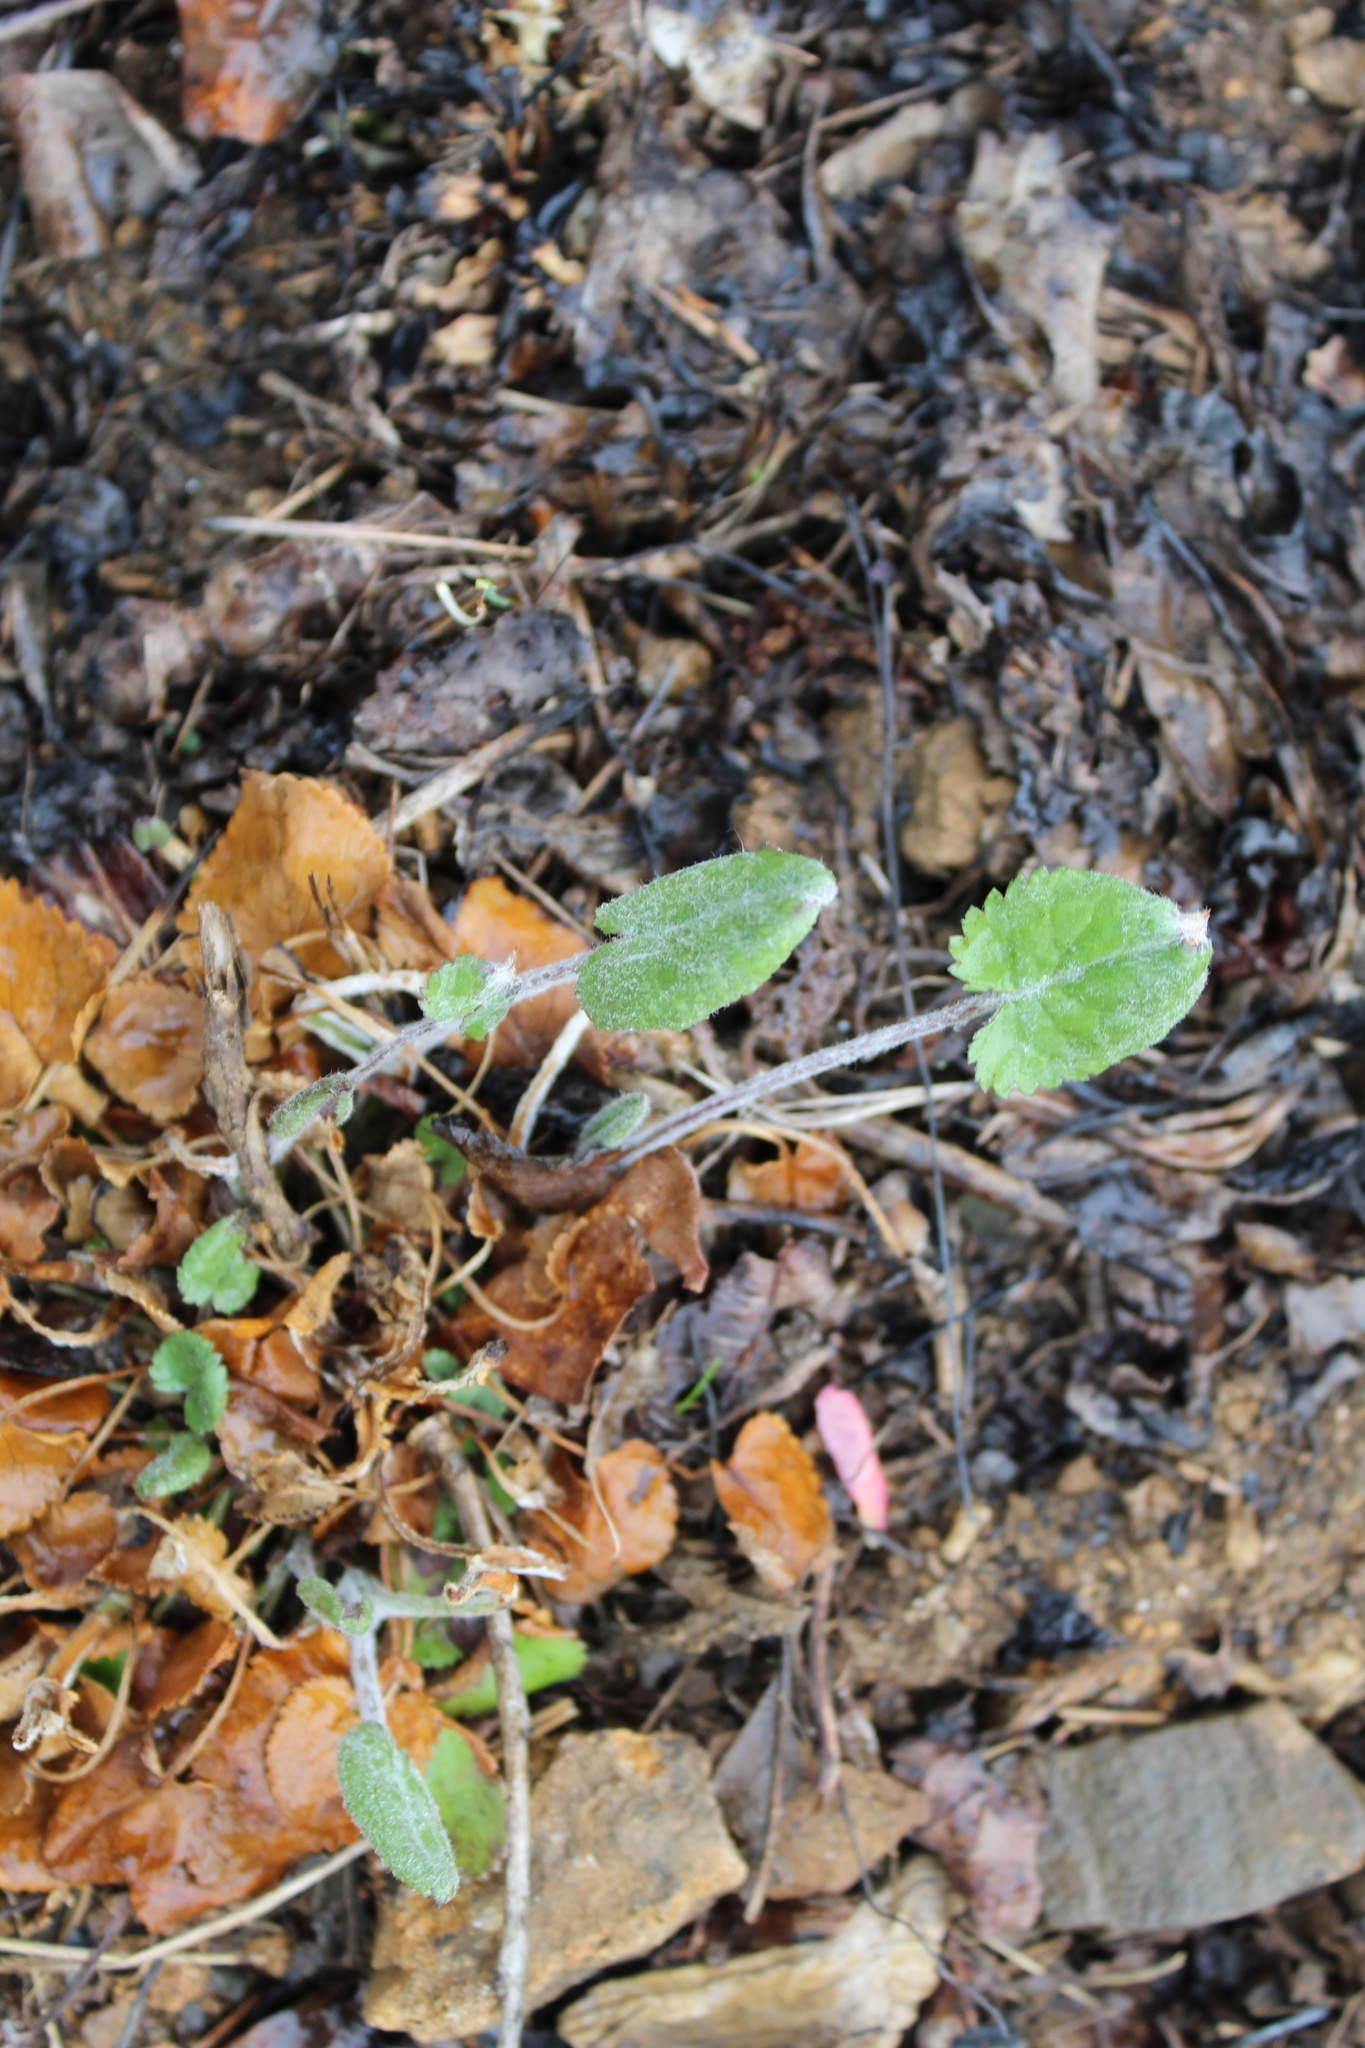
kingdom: Plantae
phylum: Tracheophyta
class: Magnoliopsida
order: Asterales
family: Asteraceae
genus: Packera
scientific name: Packera serpenticola
